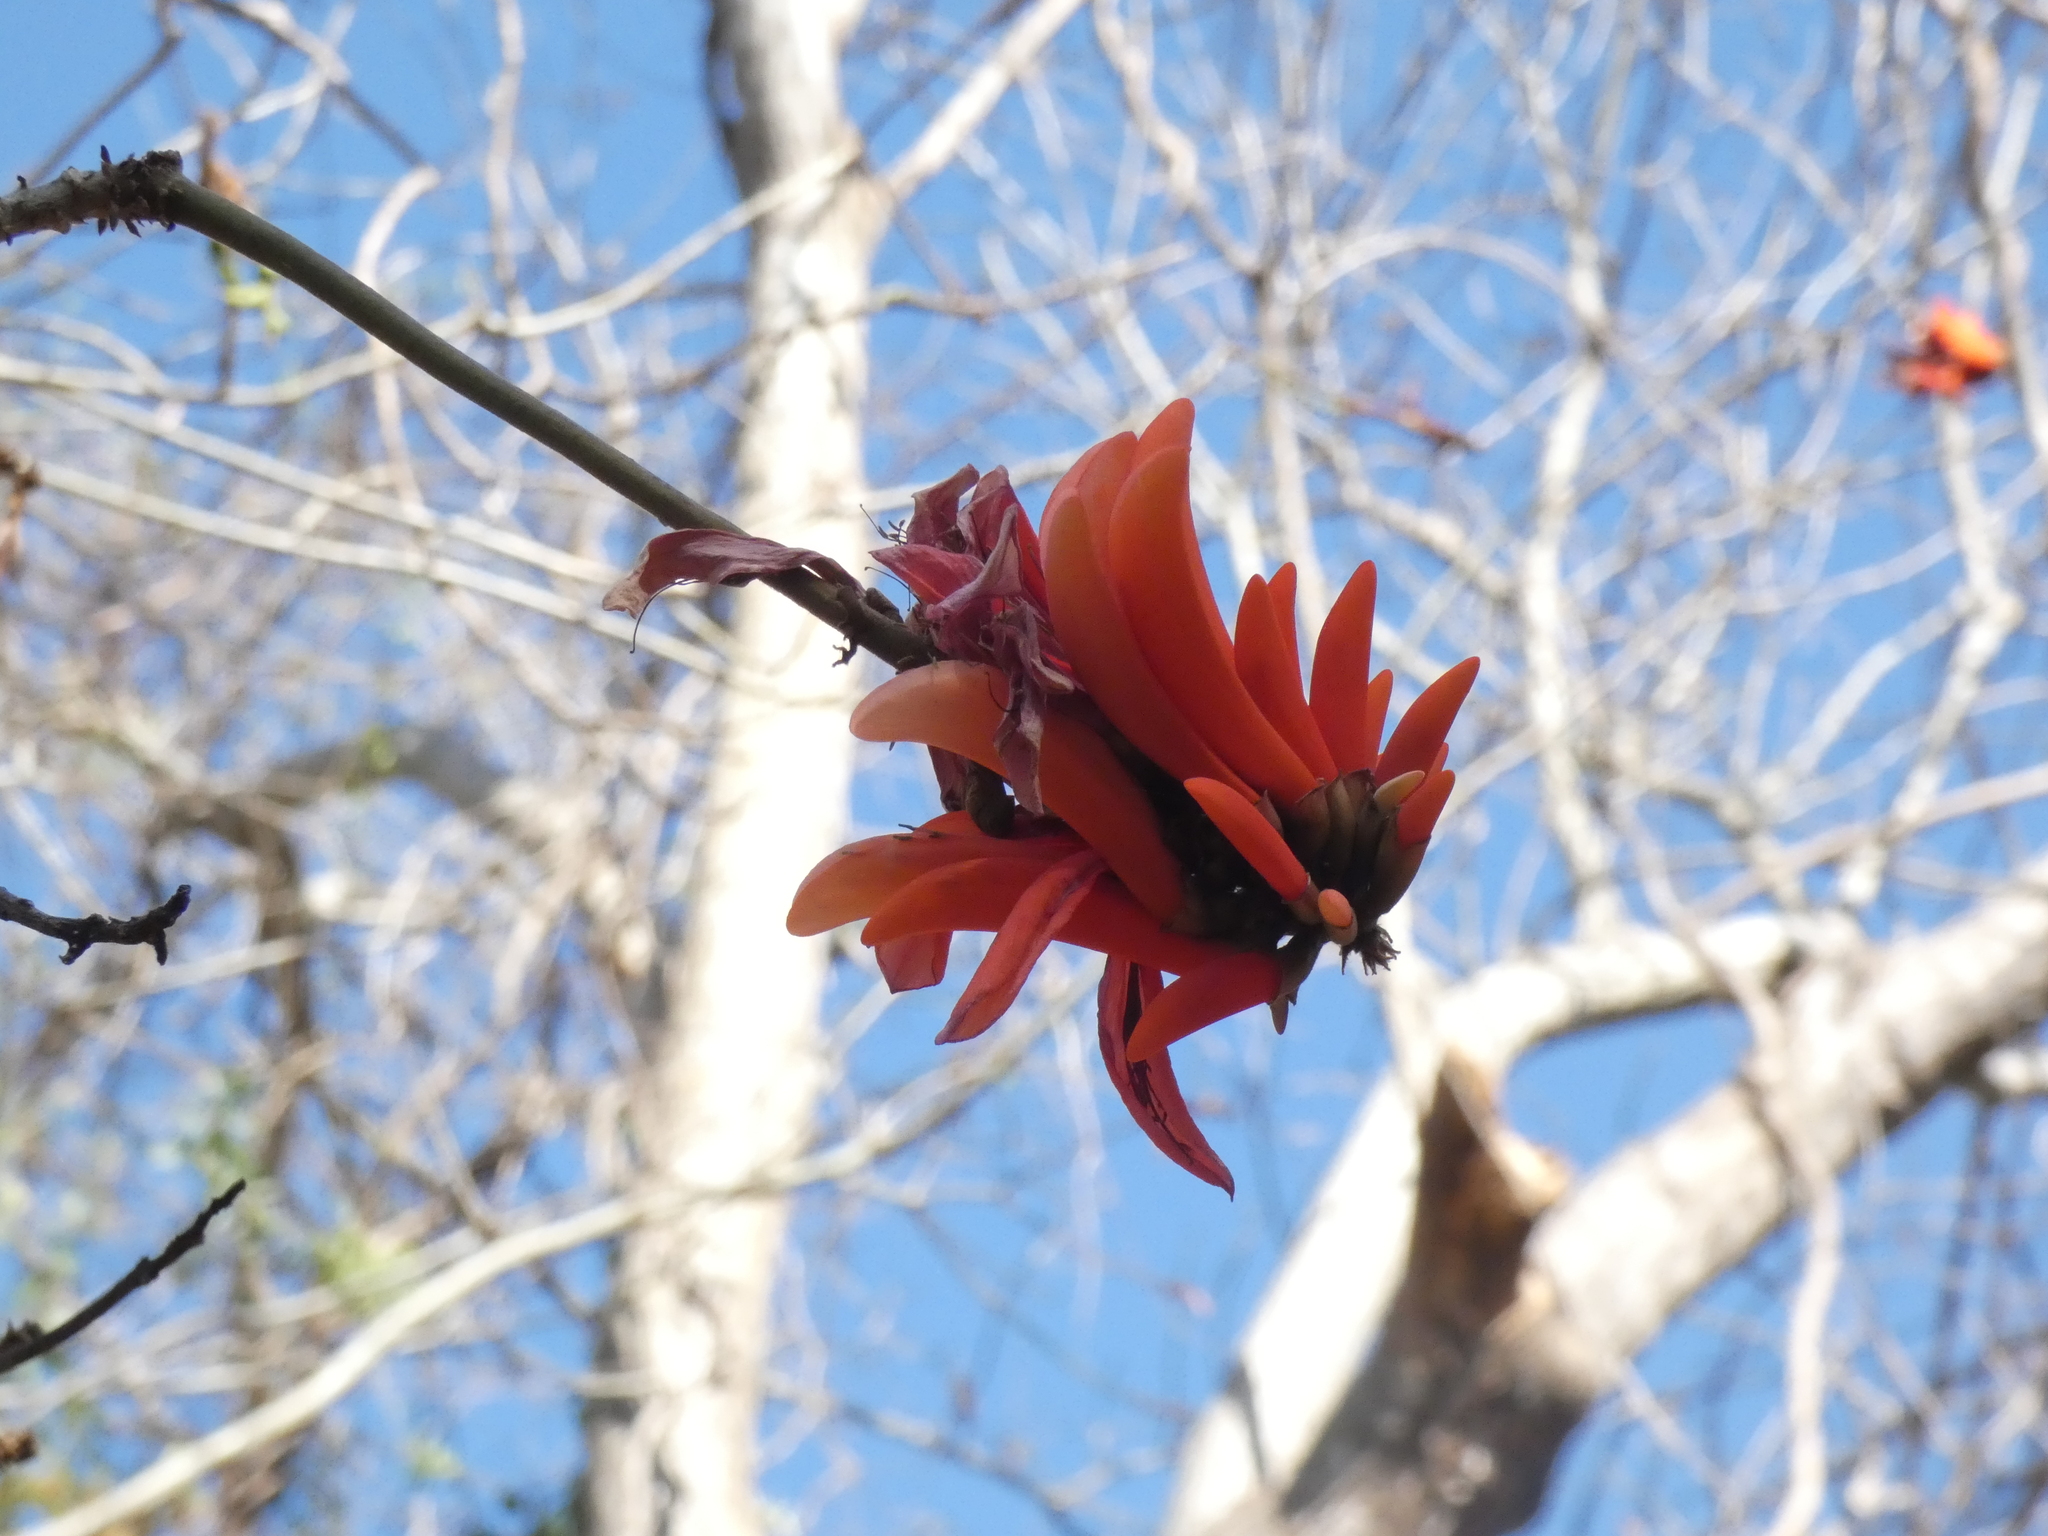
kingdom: Plantae
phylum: Tracheophyta
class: Magnoliopsida
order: Fabales
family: Fabaceae
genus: Erythrina
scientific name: Erythrina lysistemon
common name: Common coral tree
